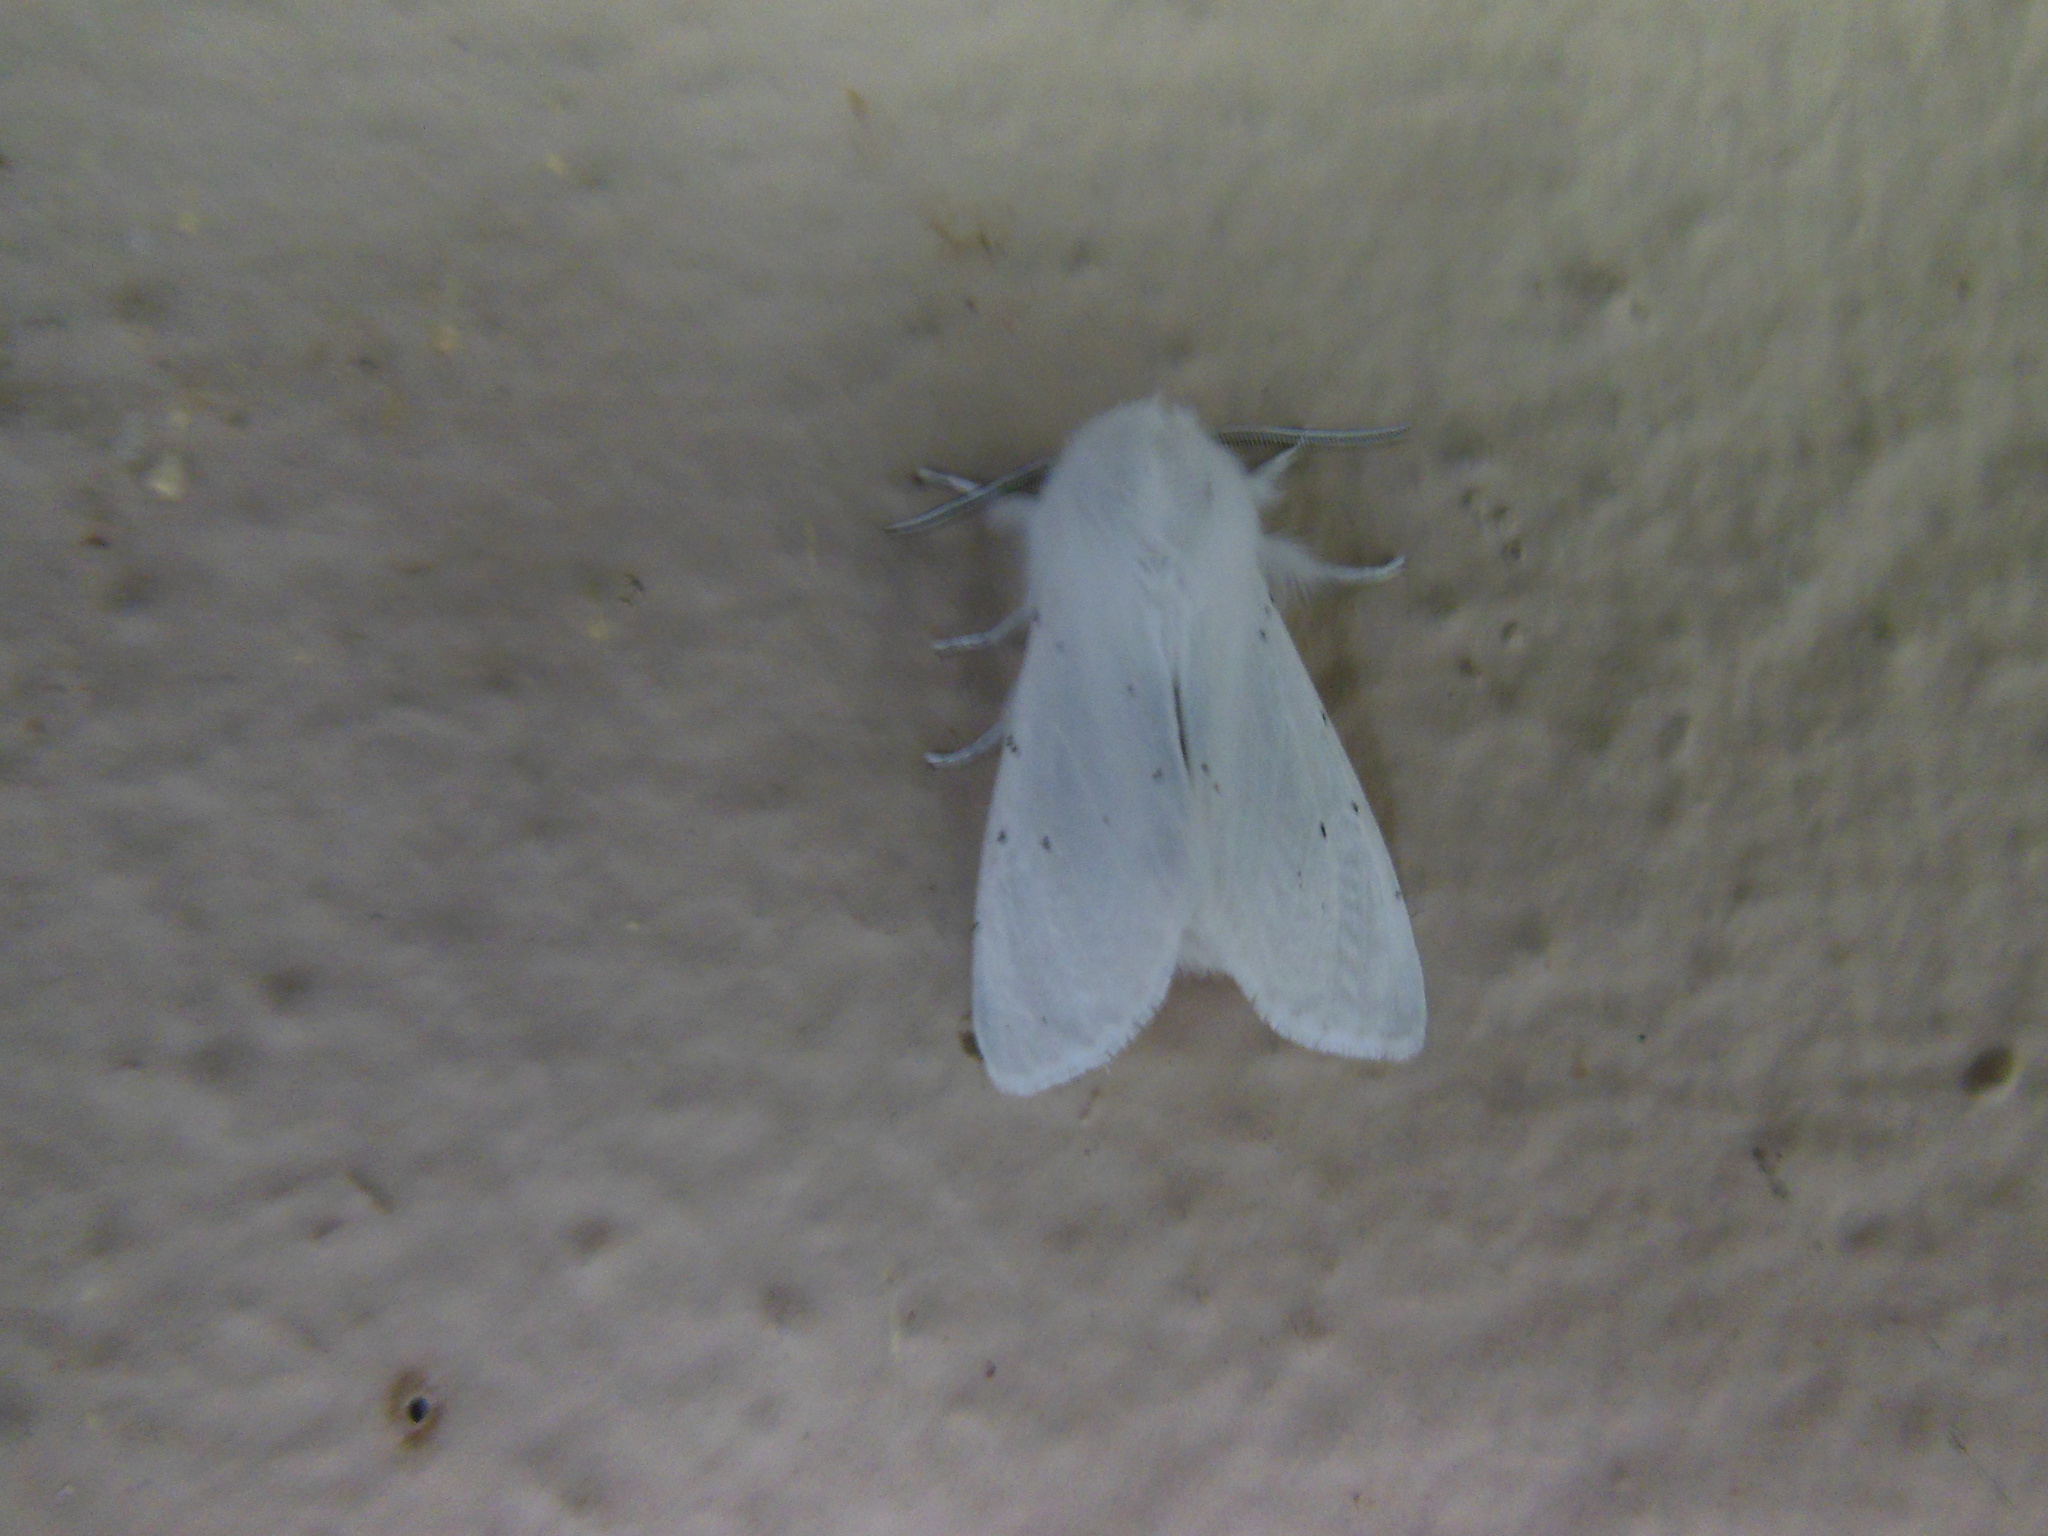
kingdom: Animalia
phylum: Arthropoda
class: Insecta
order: Lepidoptera
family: Erebidae
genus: Spilosoma
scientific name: Spilosoma vestalis
